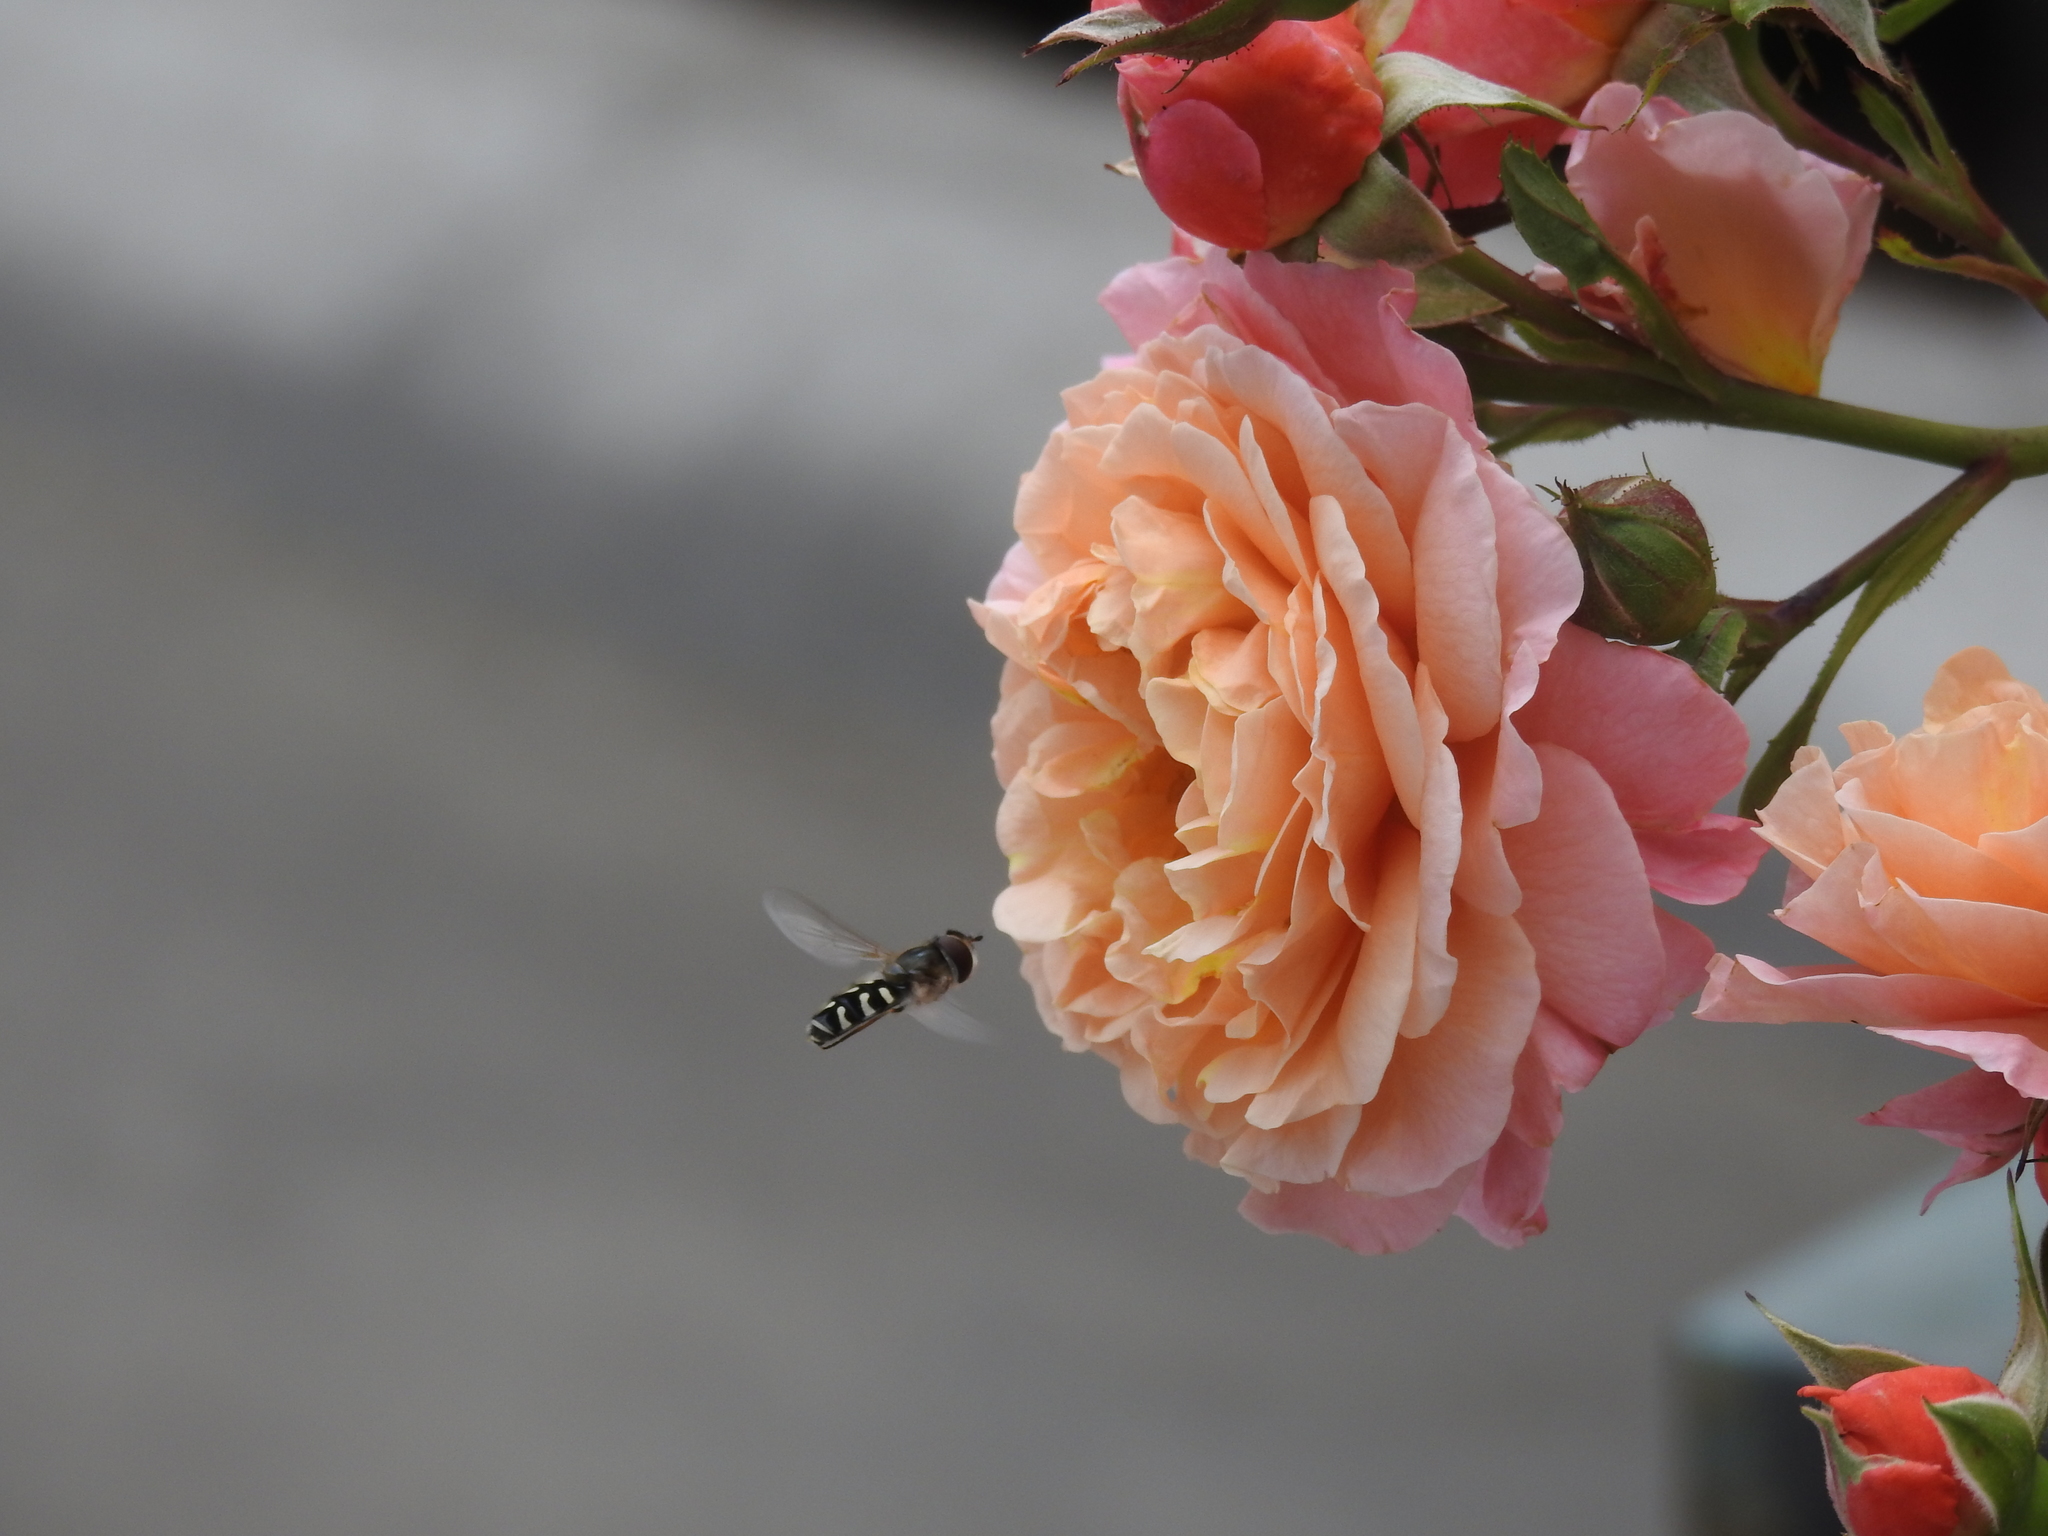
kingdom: Animalia
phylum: Arthropoda
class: Insecta
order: Diptera
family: Syrphidae
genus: Scaeva
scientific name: Scaeva pyrastri
